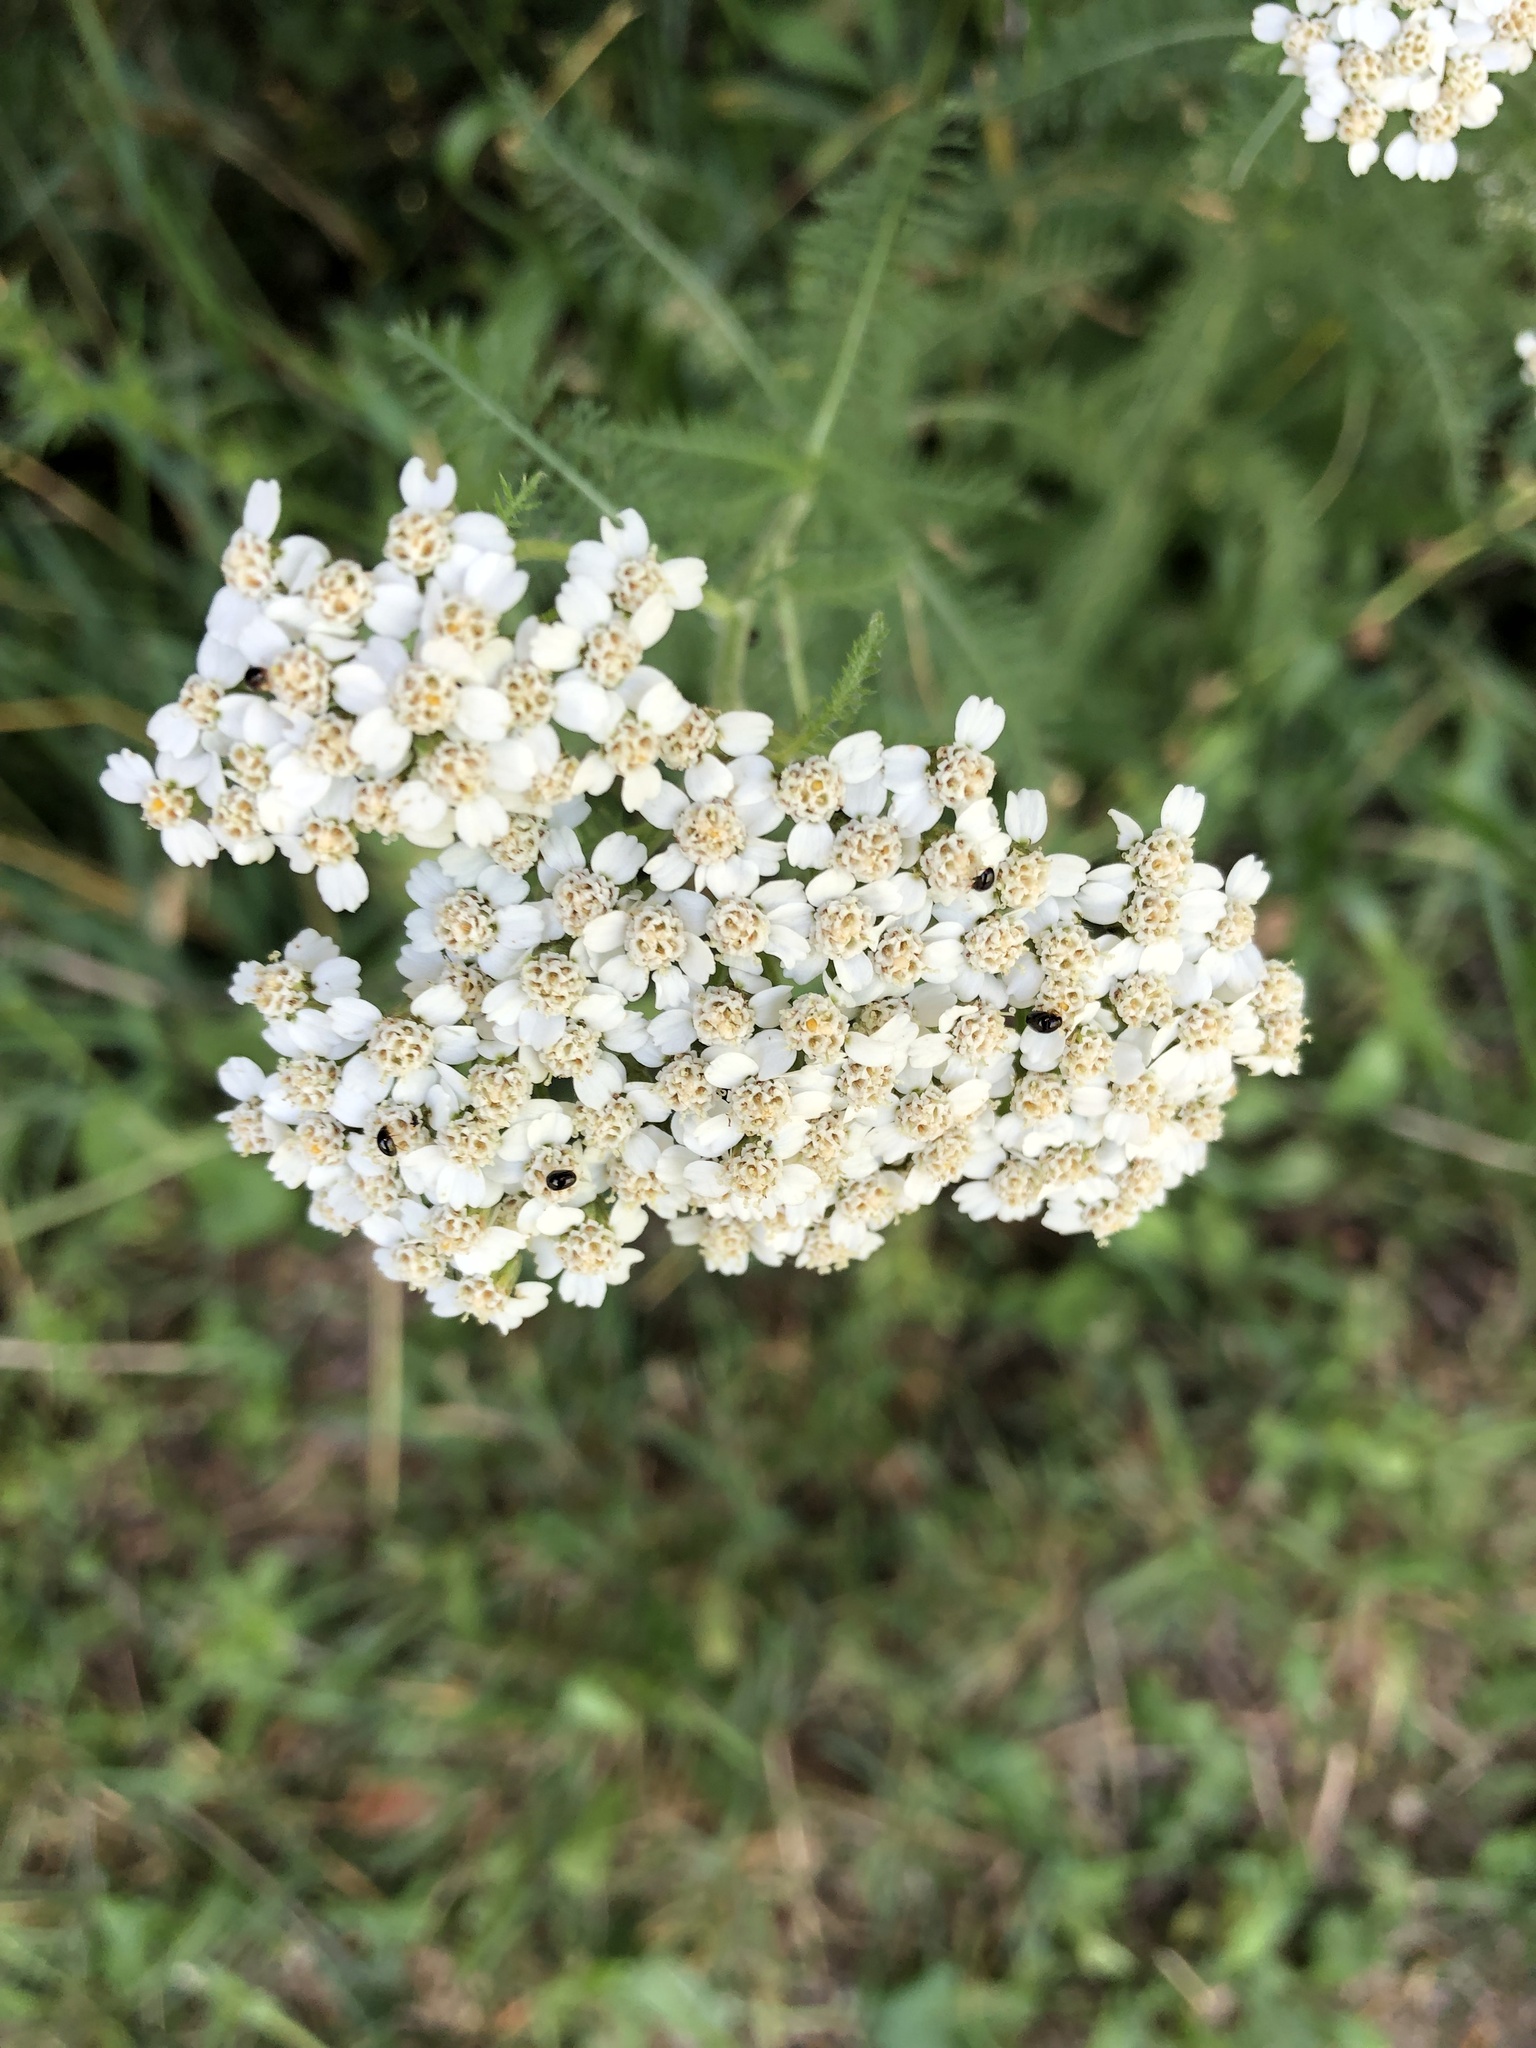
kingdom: Plantae
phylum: Tracheophyta
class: Magnoliopsida
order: Asterales
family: Asteraceae
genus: Achillea
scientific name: Achillea millefolium
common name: Yarrow
